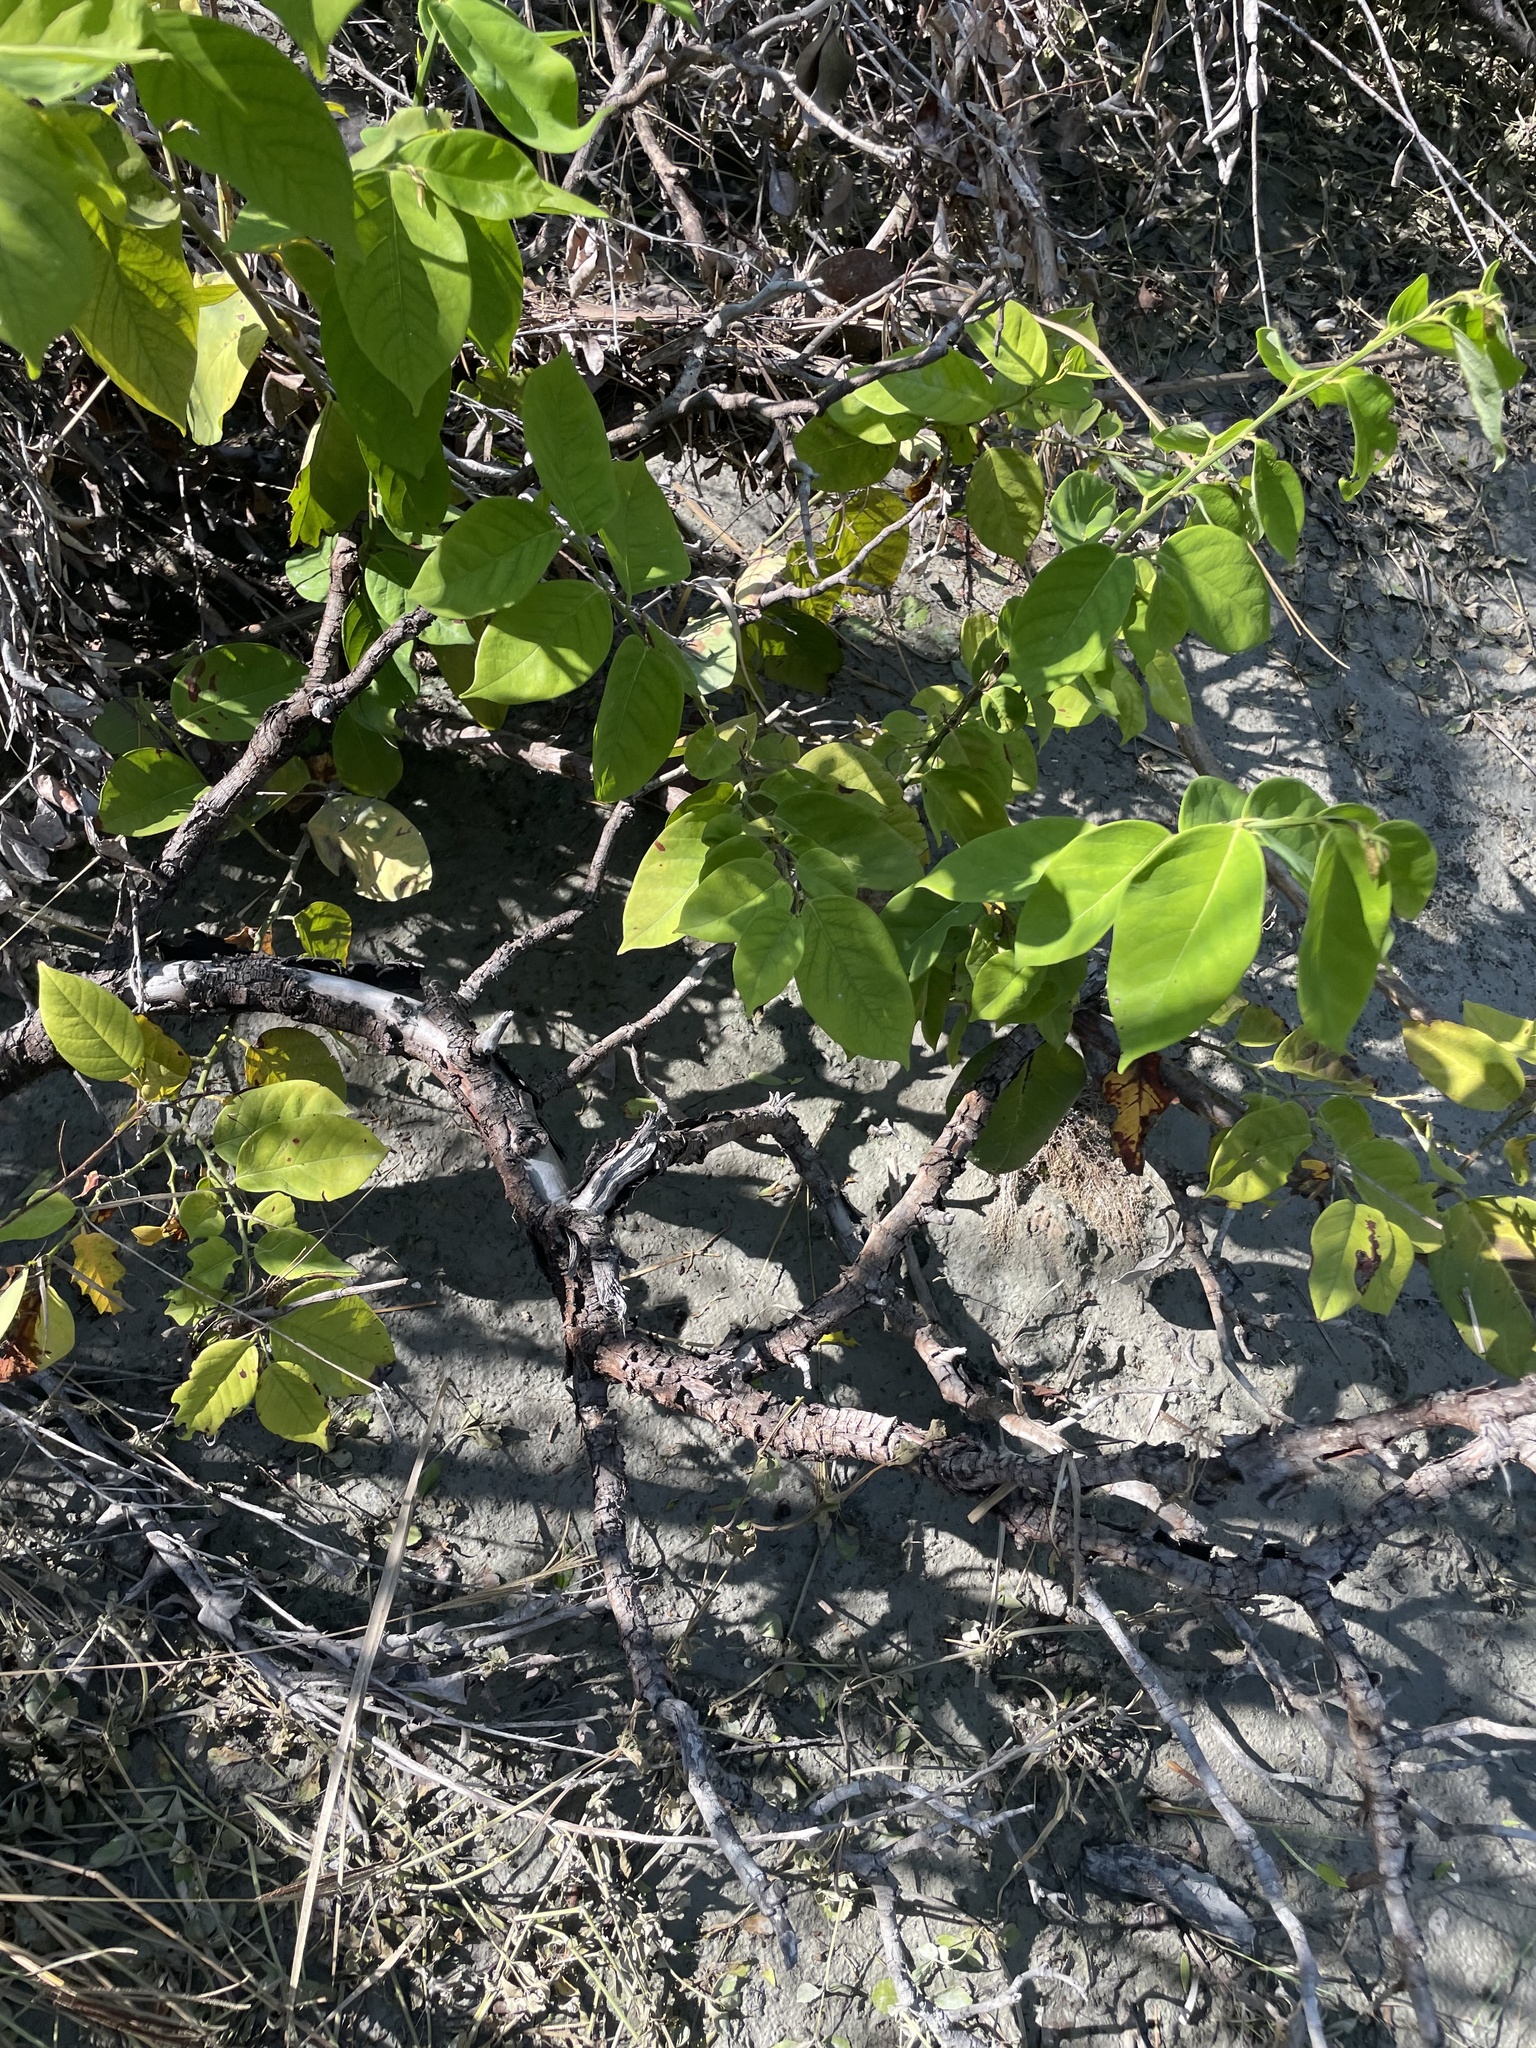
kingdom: Plantae
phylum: Tracheophyta
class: Magnoliopsida
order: Fabales
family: Fabaceae
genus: Dalbergia
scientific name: Dalbergia ecastaphyllum
